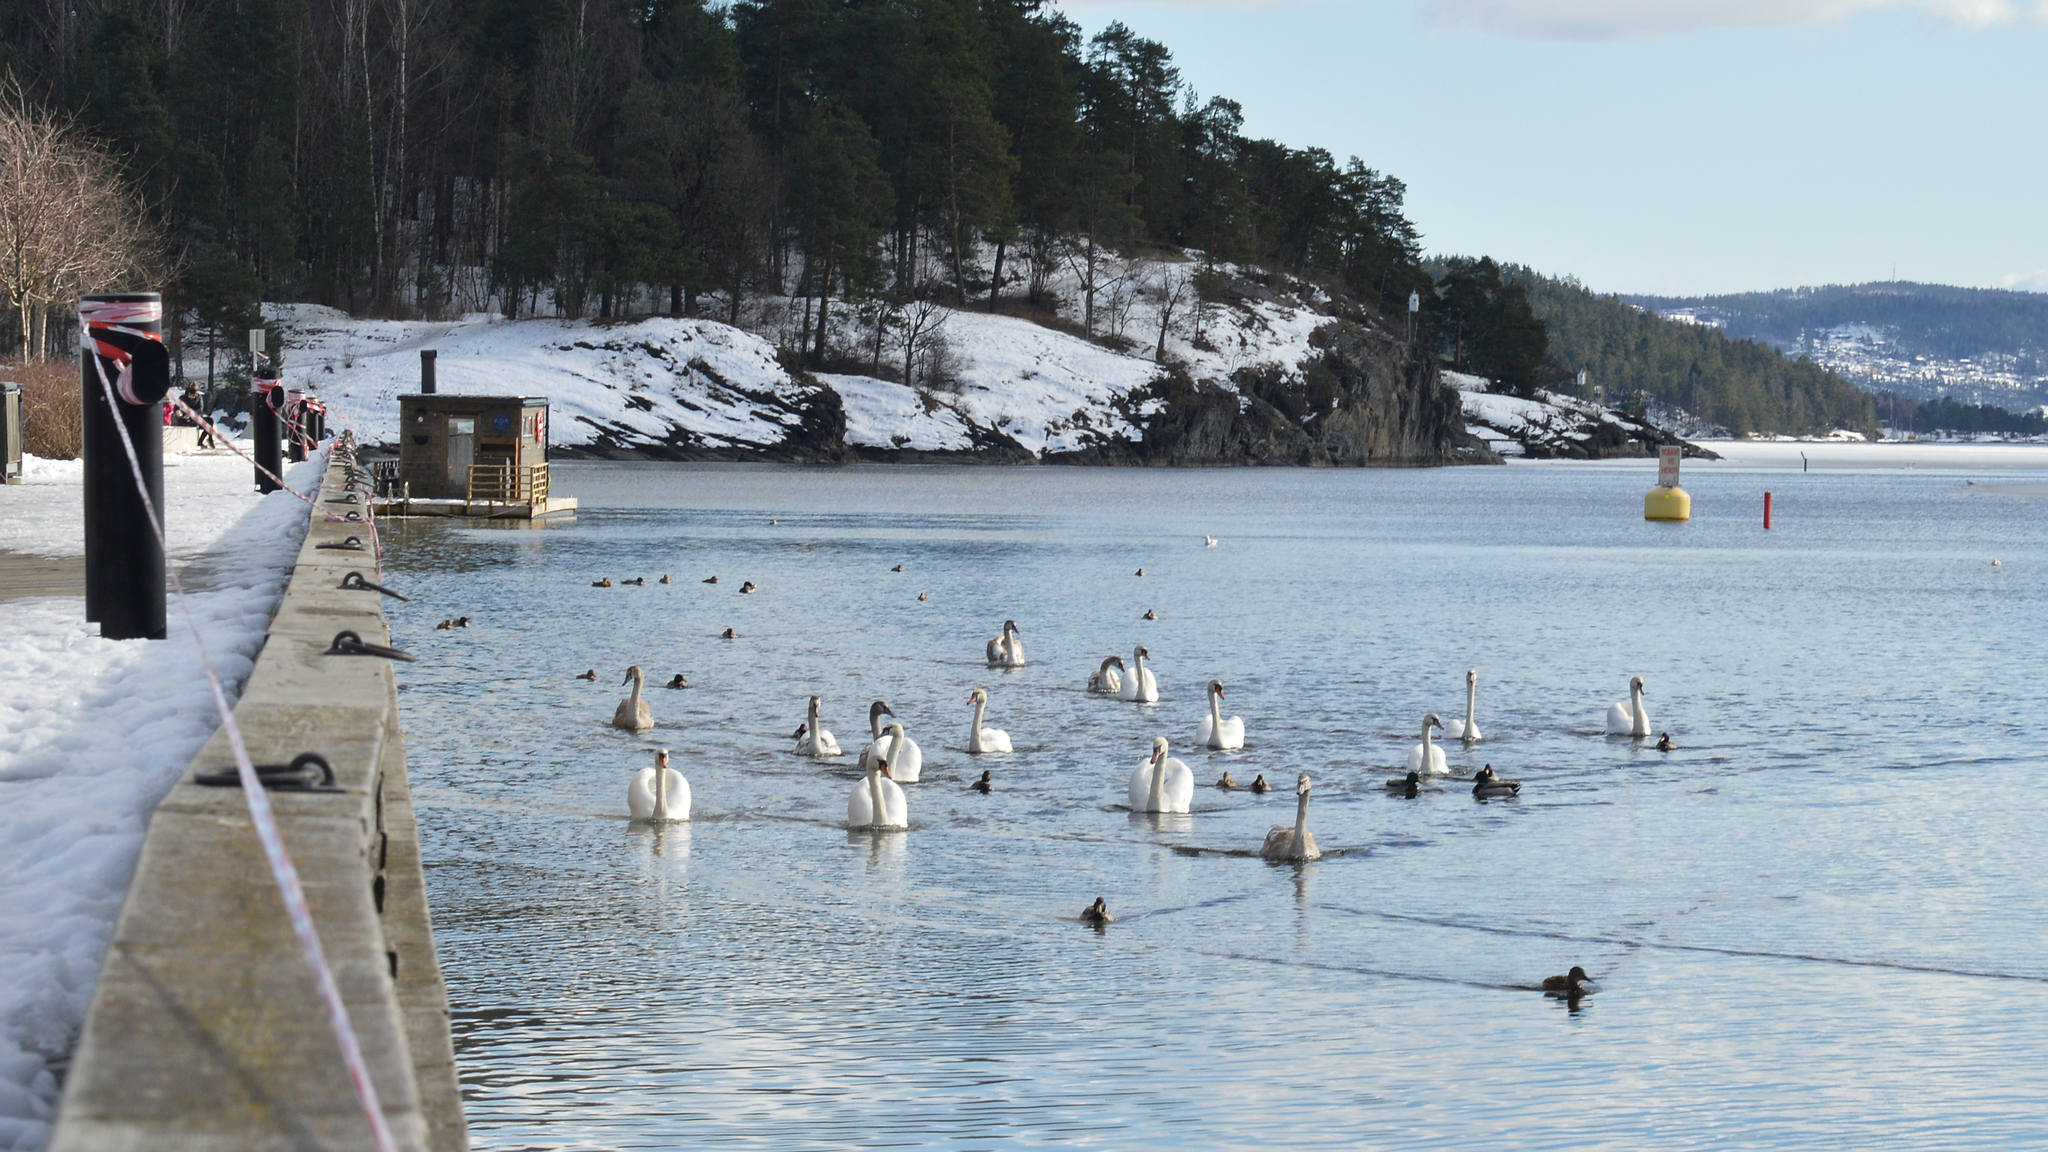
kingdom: Animalia
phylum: Chordata
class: Aves
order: Anseriformes
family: Anatidae
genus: Cygnus
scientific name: Cygnus olor
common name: Mute swan
